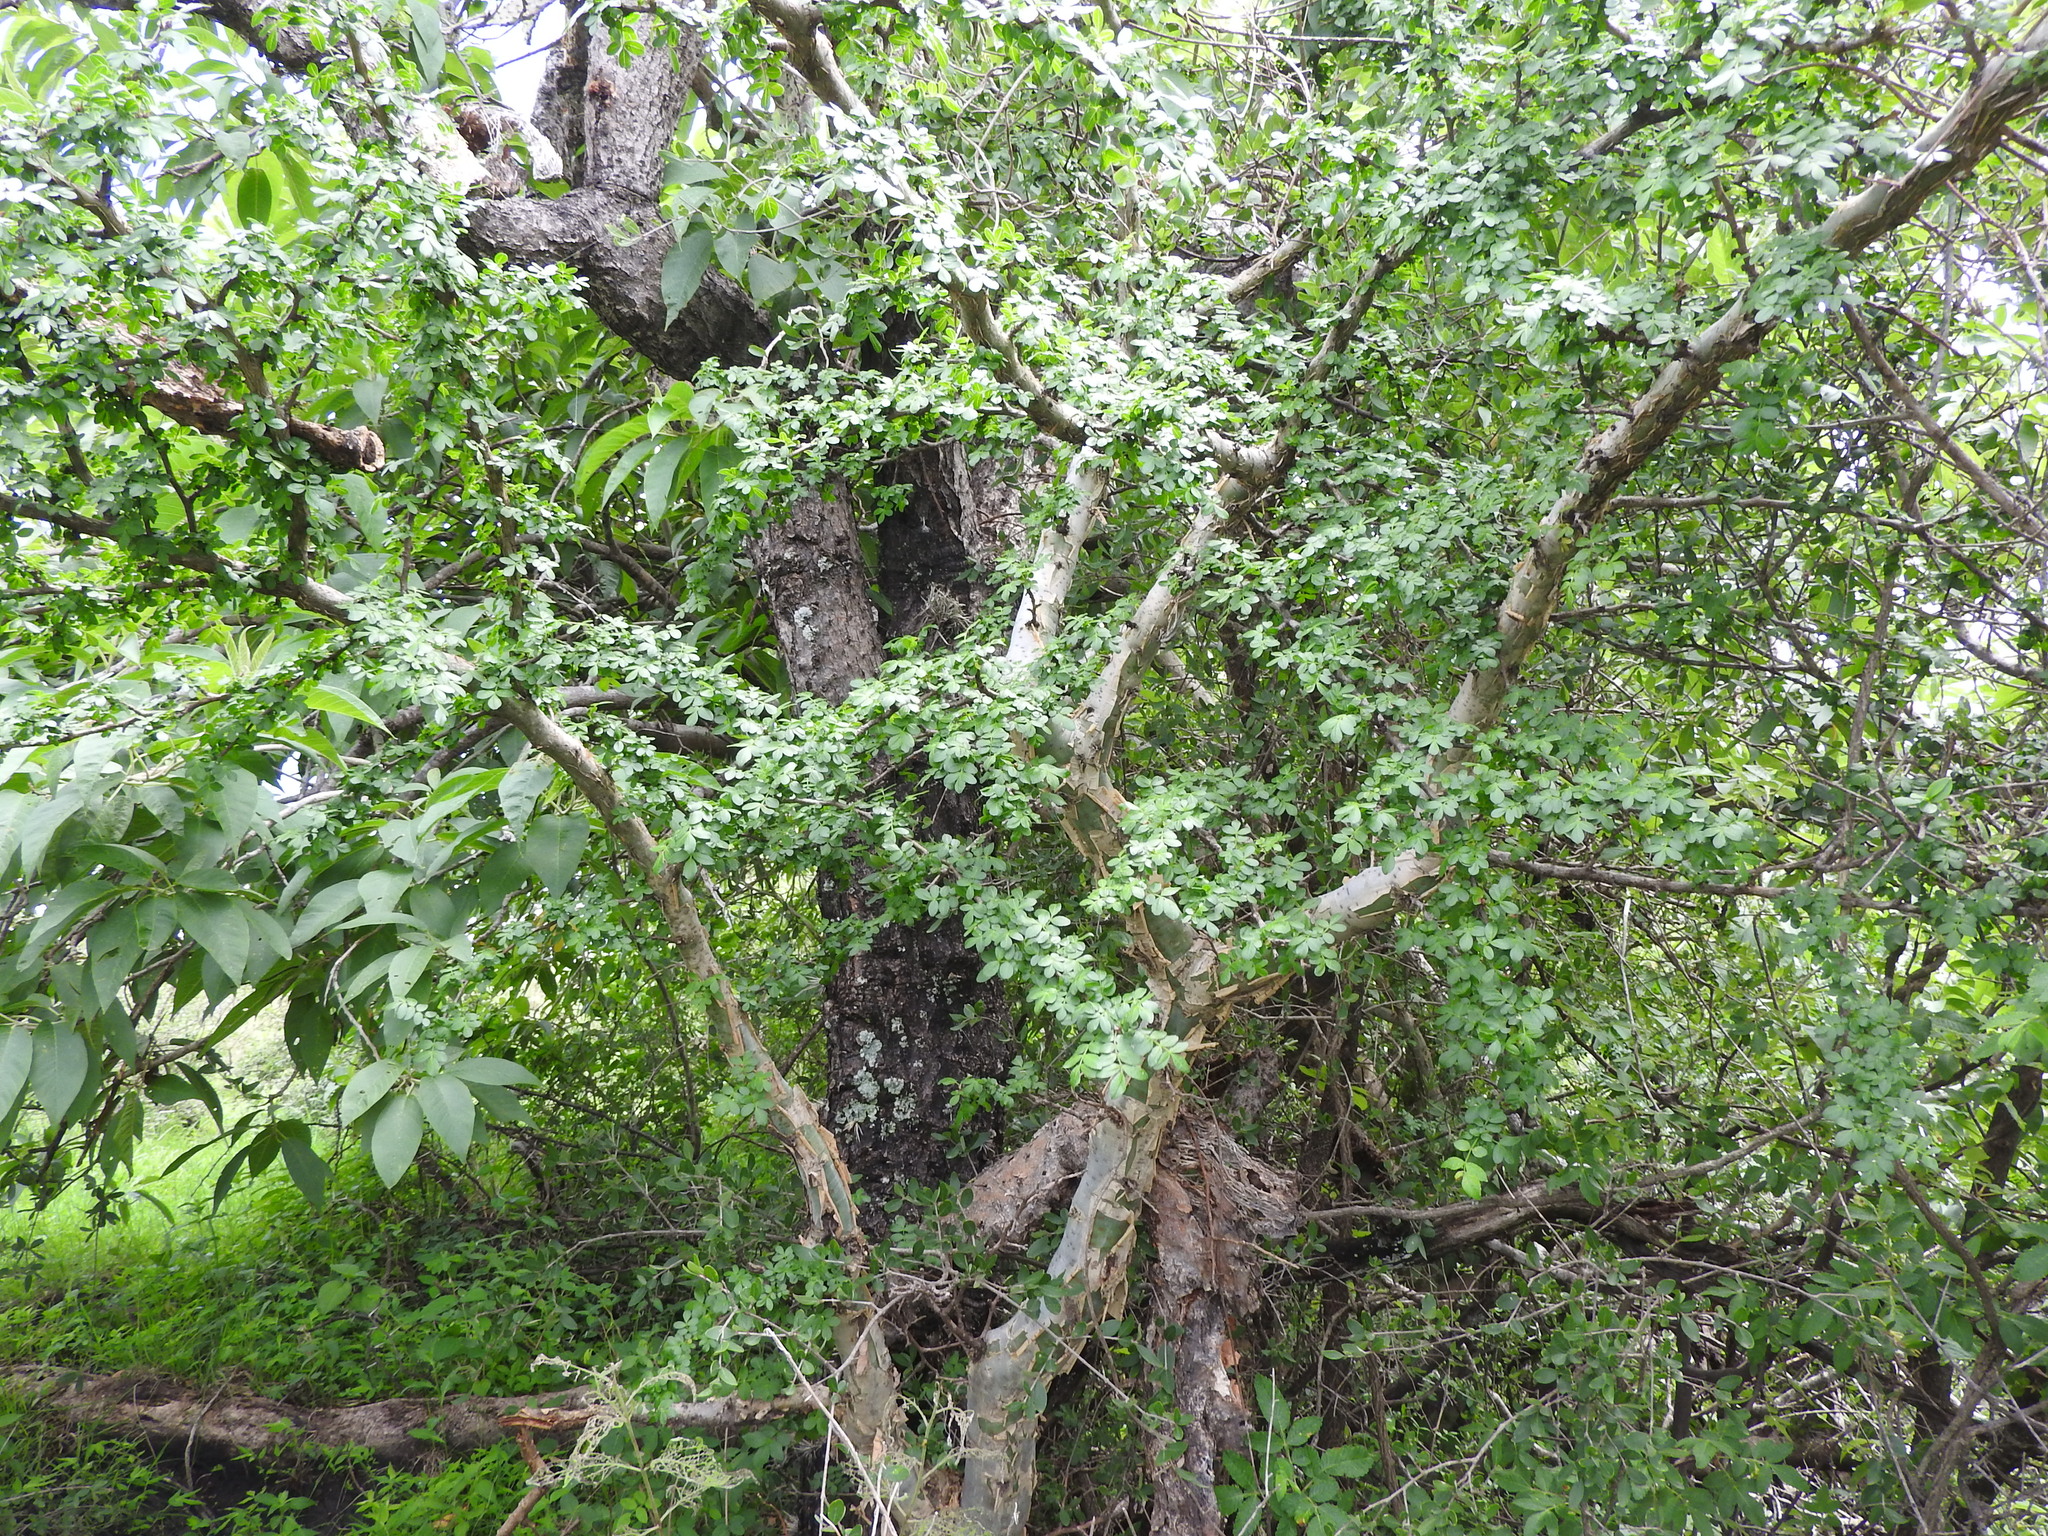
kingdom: Plantae
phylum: Tracheophyta
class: Magnoliopsida
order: Sapindales
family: Burseraceae
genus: Bursera
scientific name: Bursera fagaroides
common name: Elephant tree
